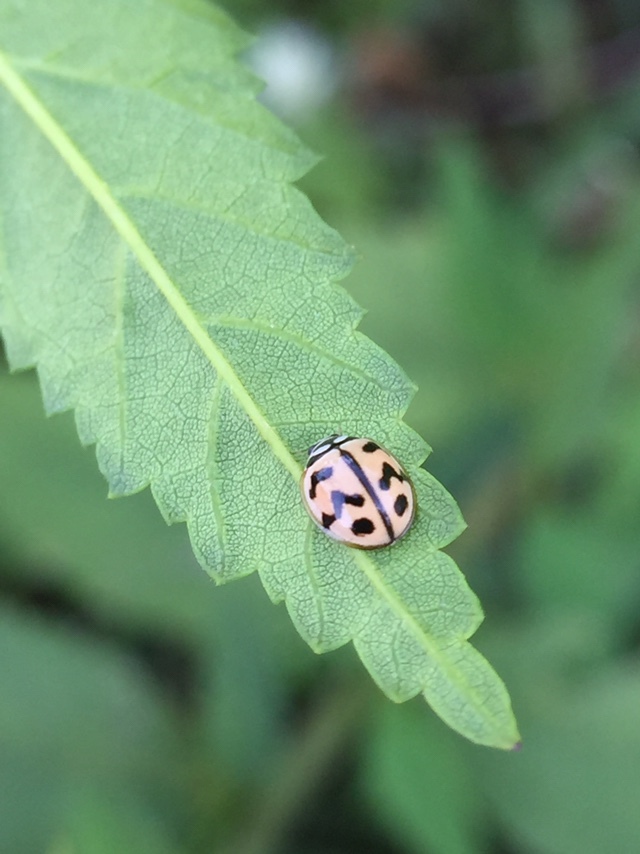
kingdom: Animalia
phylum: Arthropoda
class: Insecta
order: Coleoptera
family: Coccinellidae
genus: Cheilomenes
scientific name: Cheilomenes sexmaculata
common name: Ladybird beetle
